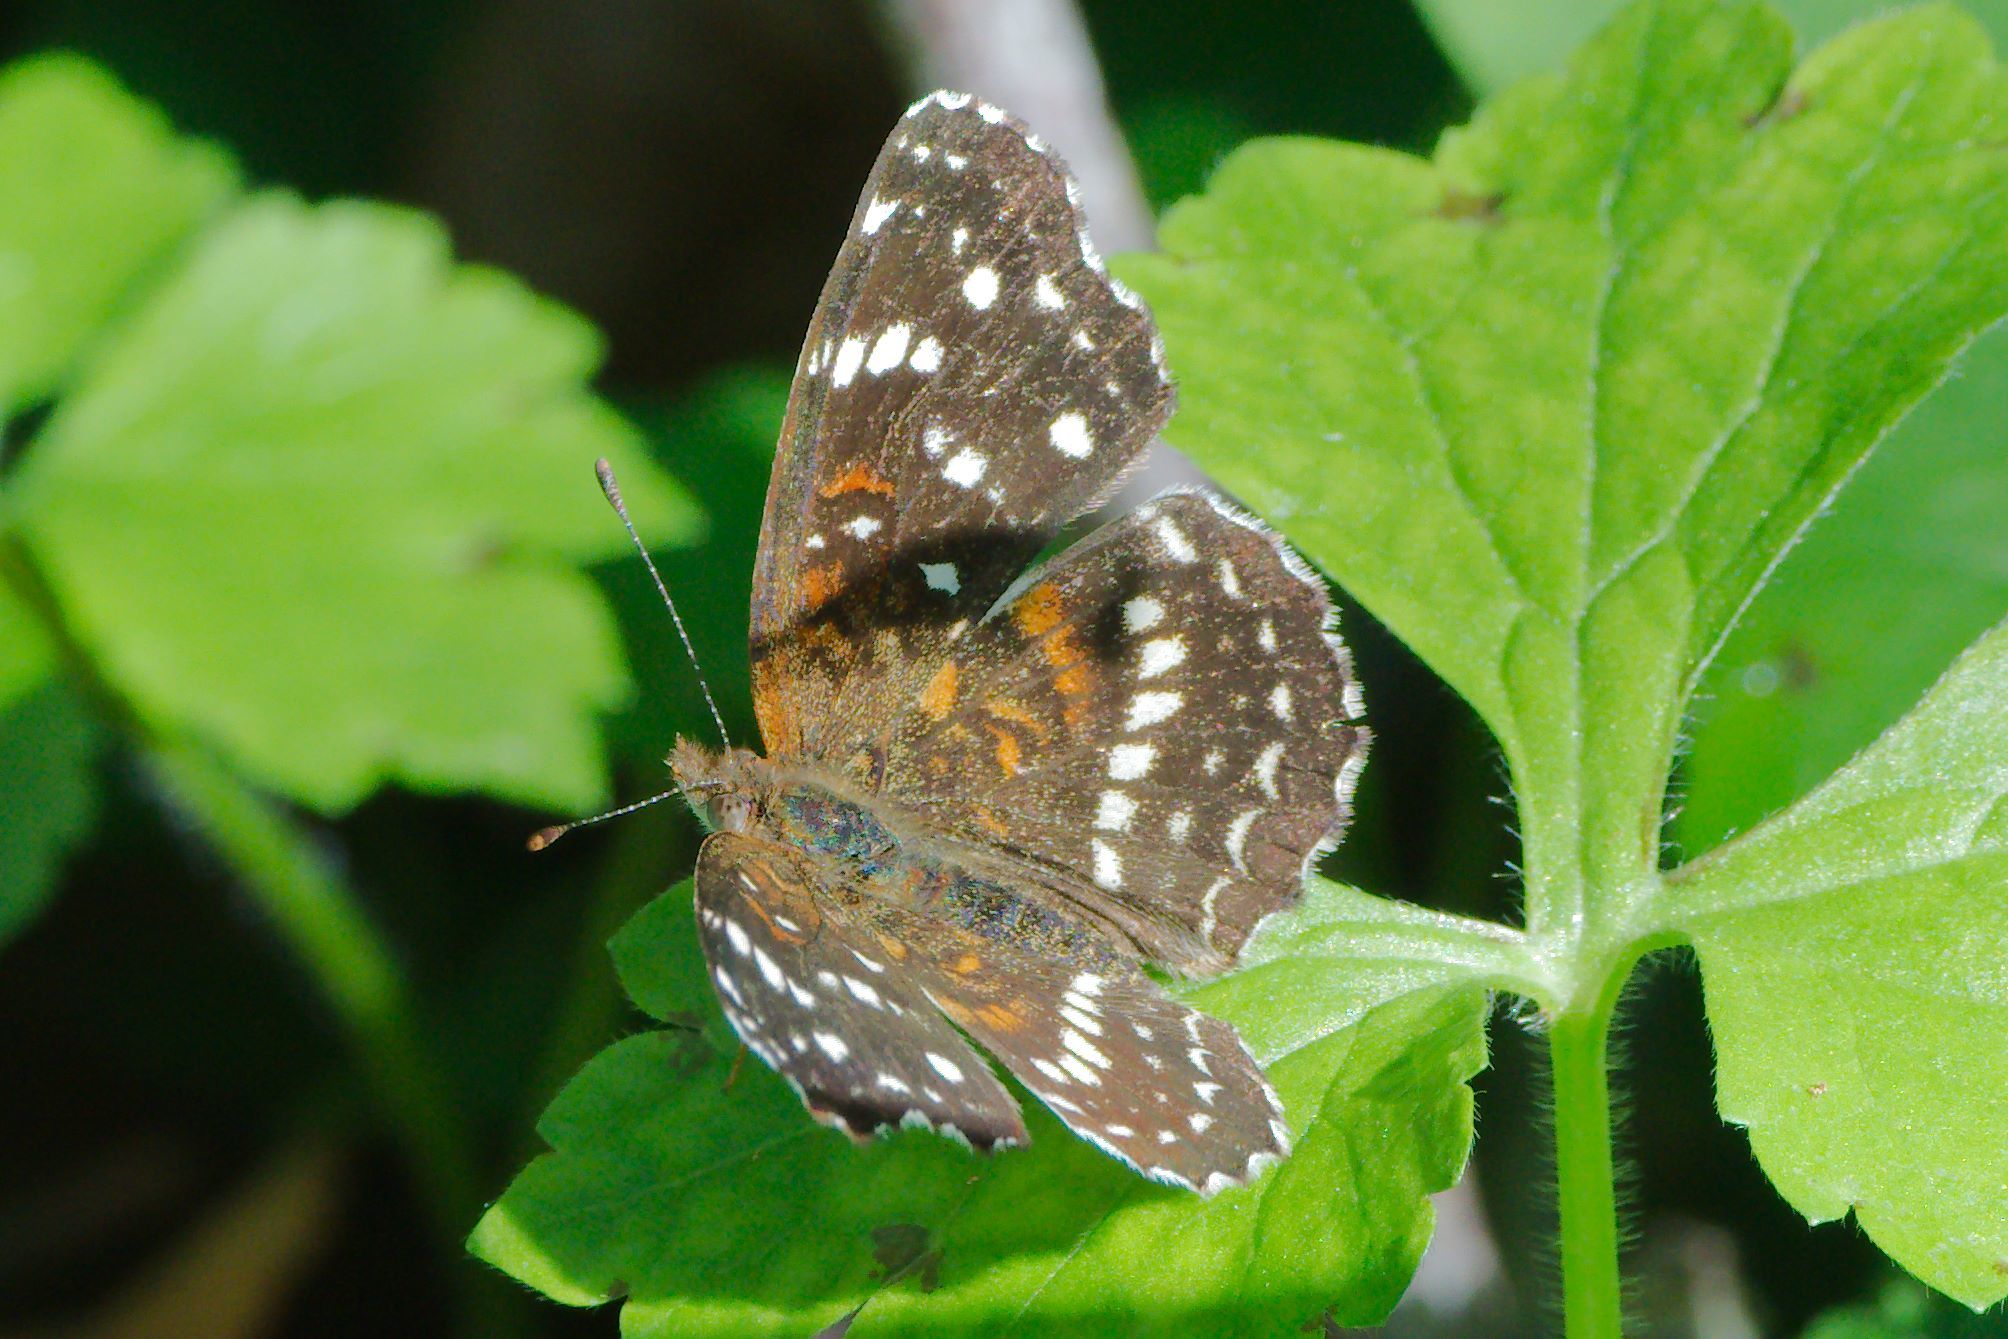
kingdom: Animalia
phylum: Arthropoda
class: Insecta
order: Lepidoptera
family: Nymphalidae
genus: Anthanassa
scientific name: Anthanassa texana
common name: Texan crescent
